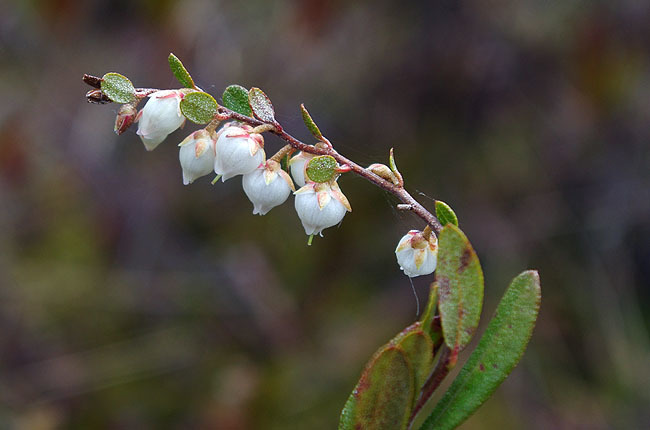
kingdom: Plantae
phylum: Tracheophyta
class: Magnoliopsida
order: Ericales
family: Ericaceae
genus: Chamaedaphne
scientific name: Chamaedaphne calyculata
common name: Leatherleaf
